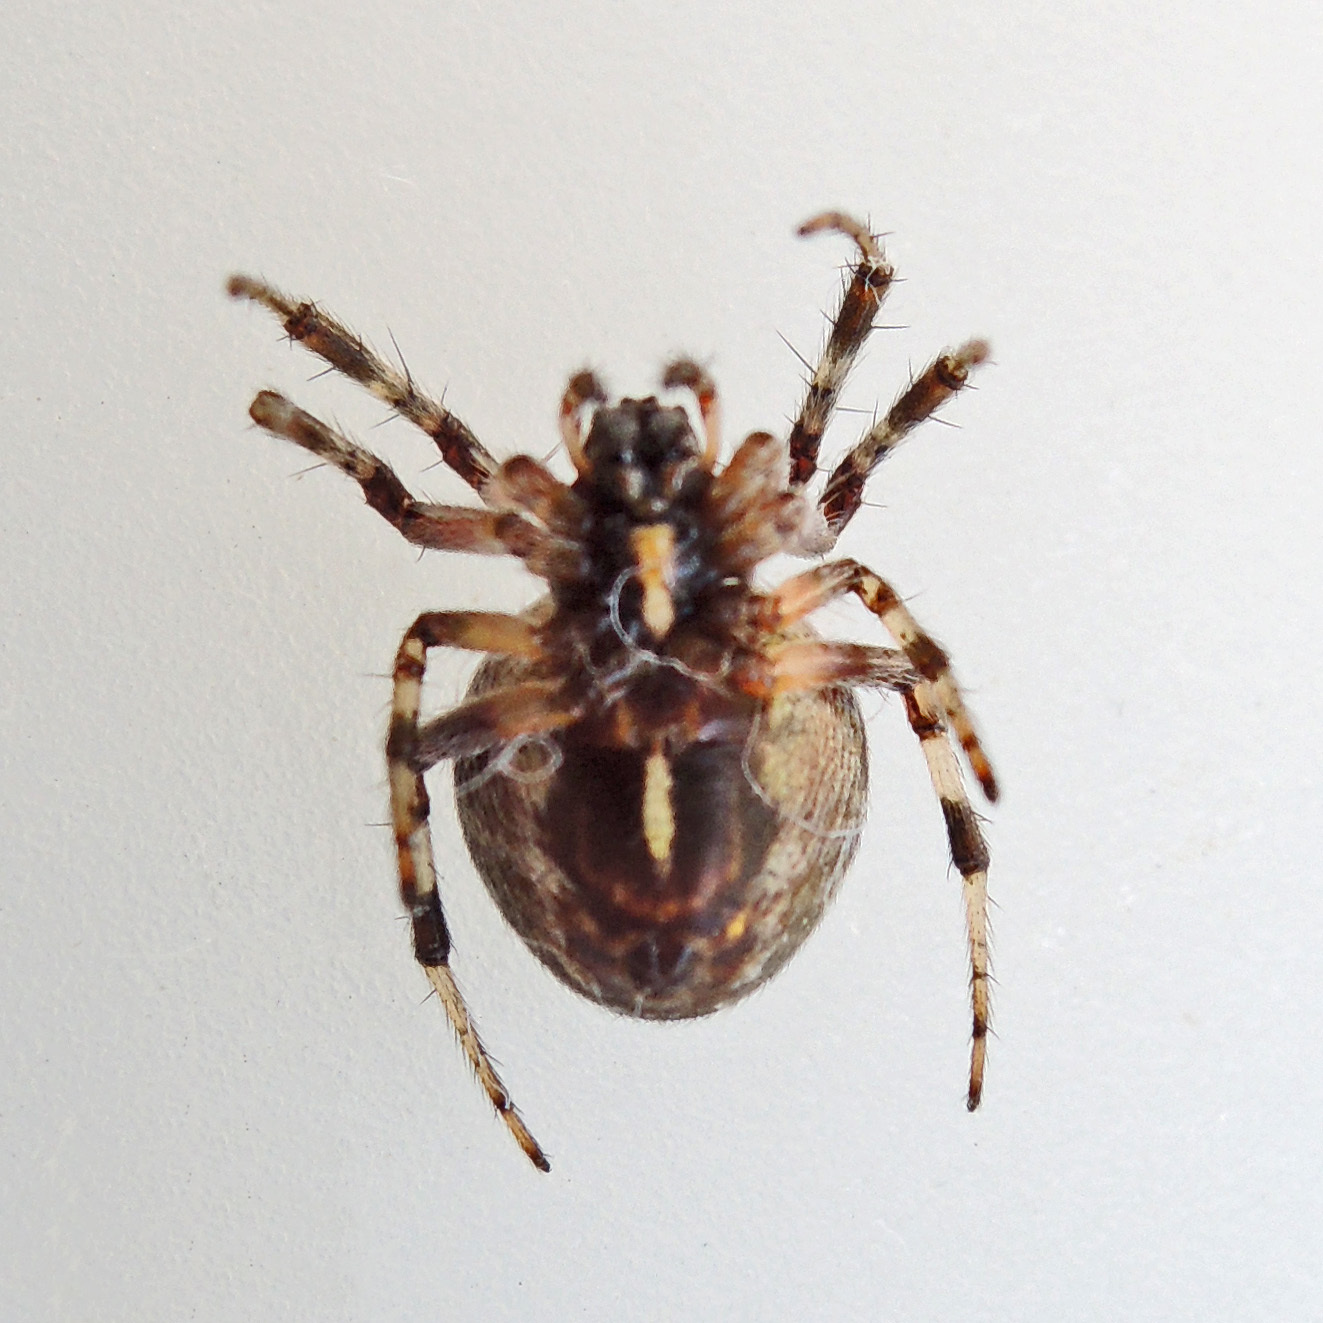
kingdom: Animalia
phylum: Arthropoda
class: Arachnida
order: Araneae
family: Araneidae
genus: Metepeira
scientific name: Metepeira labyrinthea
